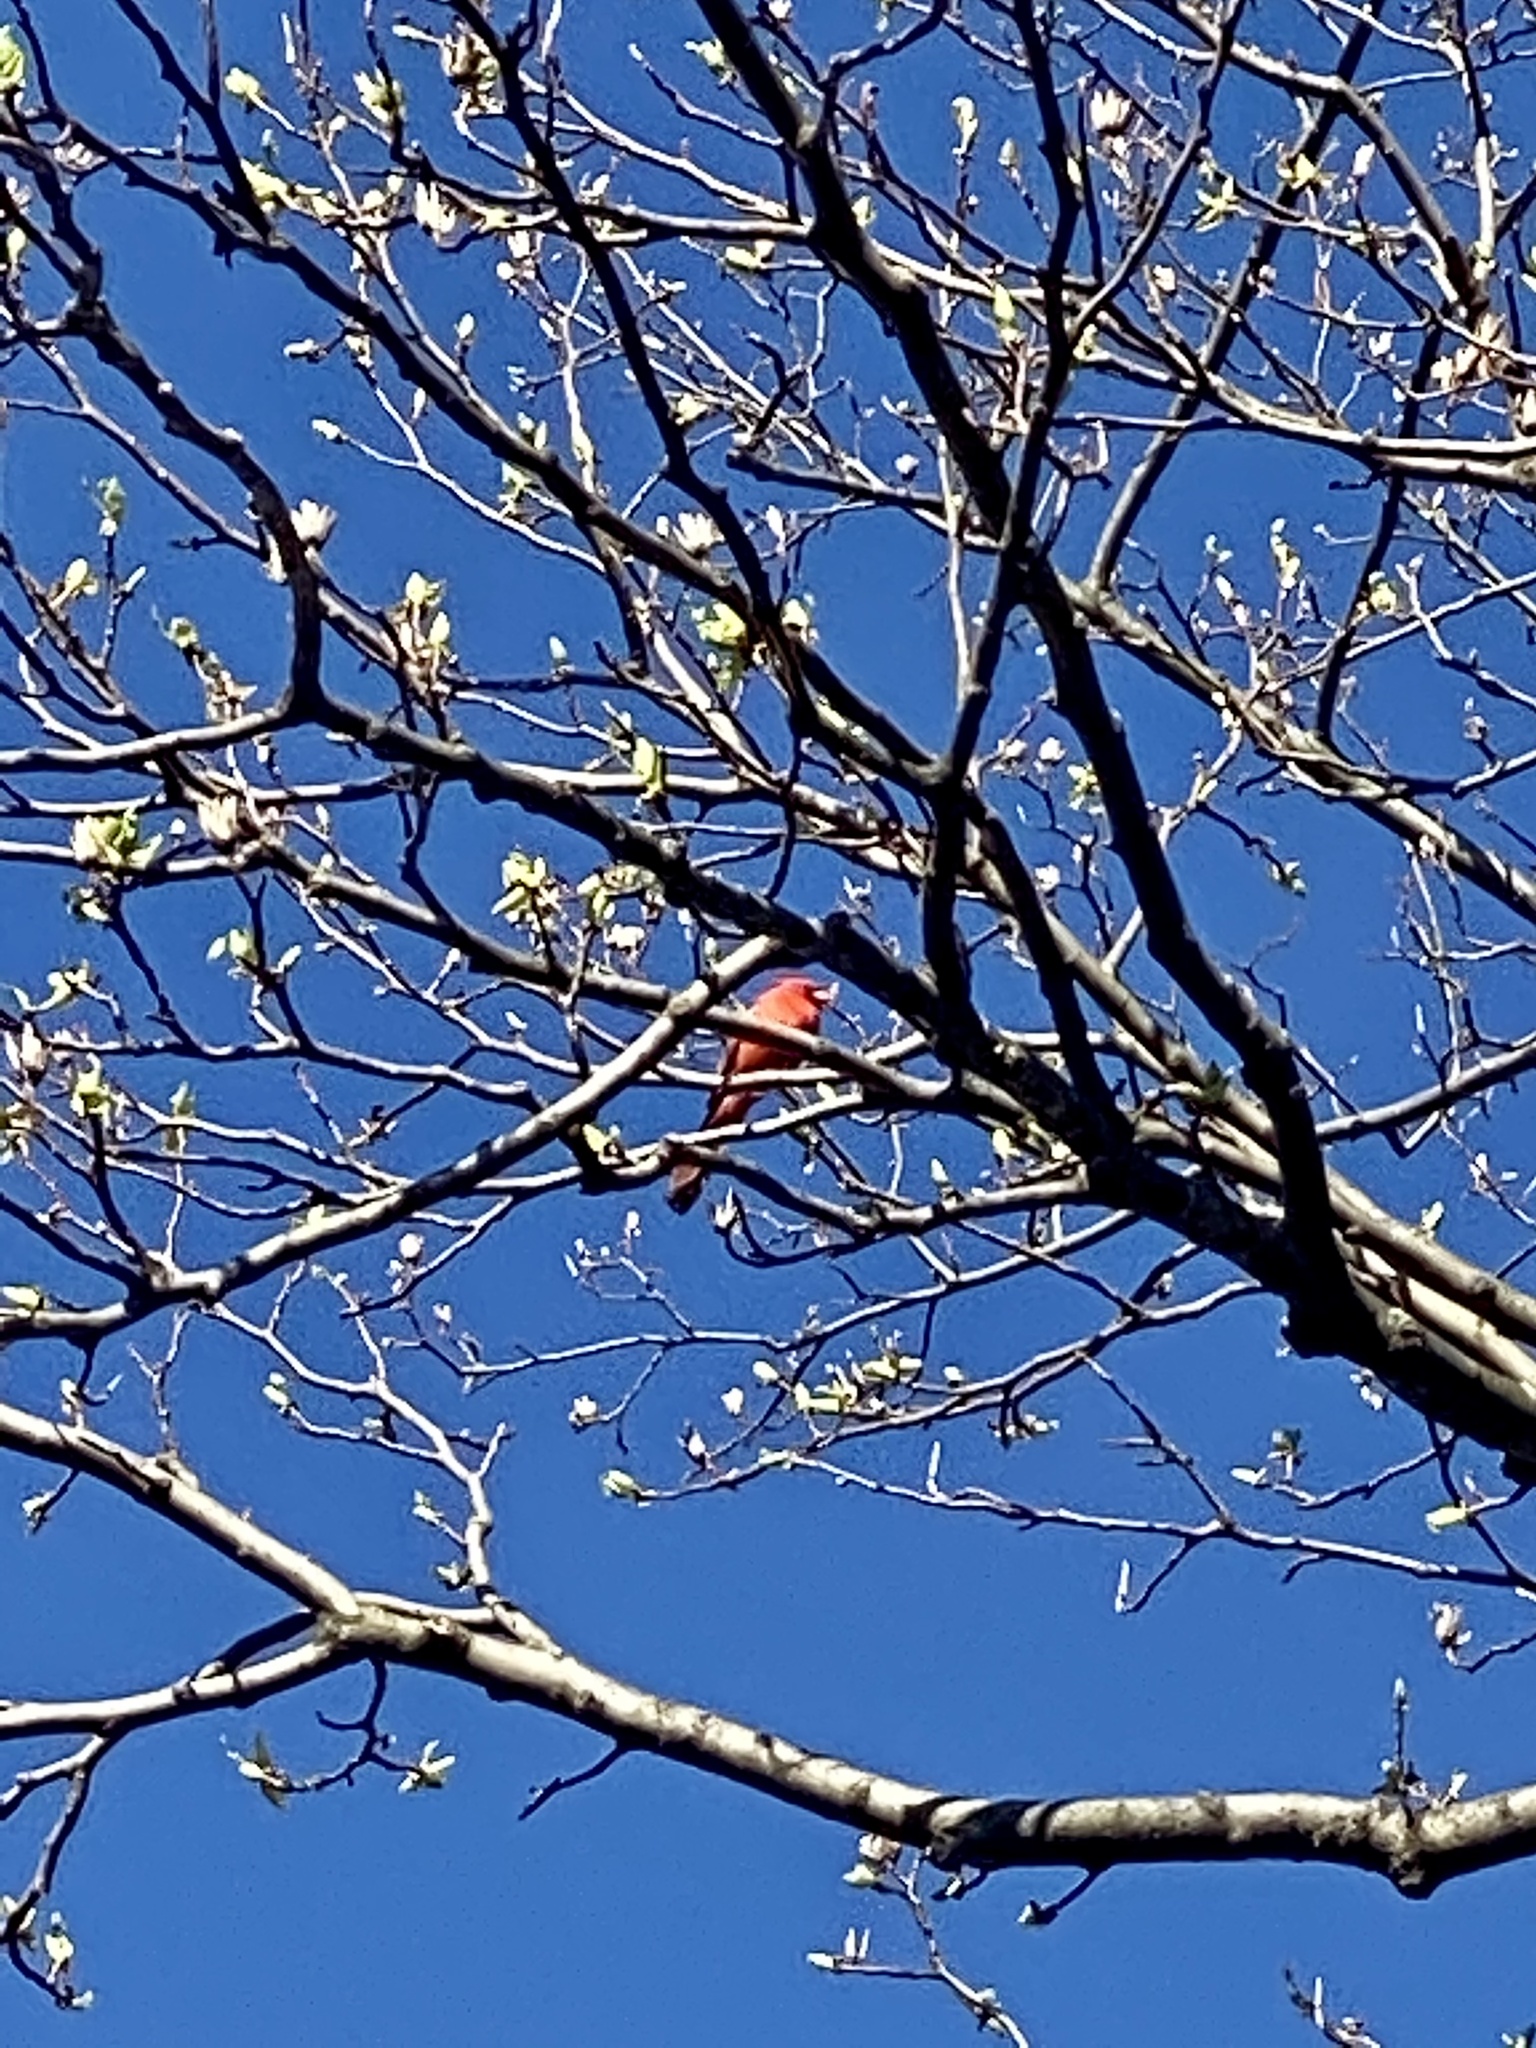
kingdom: Animalia
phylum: Chordata
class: Aves
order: Passeriformes
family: Cardinalidae
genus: Cardinalis
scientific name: Cardinalis cardinalis
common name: Northern cardinal
